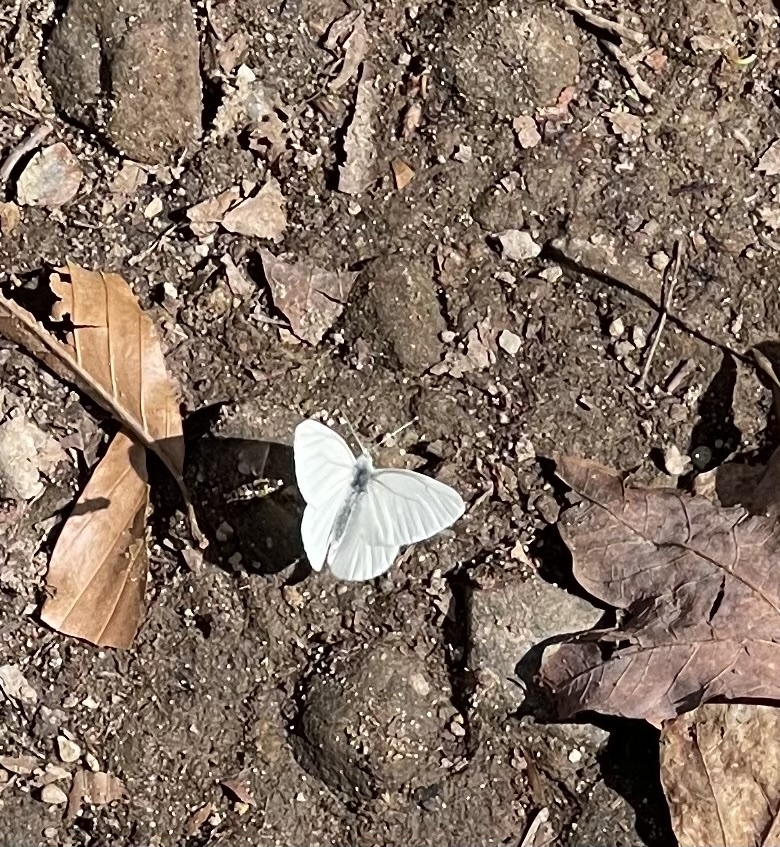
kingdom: Animalia
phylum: Arthropoda
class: Insecta
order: Lepidoptera
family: Pieridae
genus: Pieris
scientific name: Pieris virginiensis
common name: West virginia white
